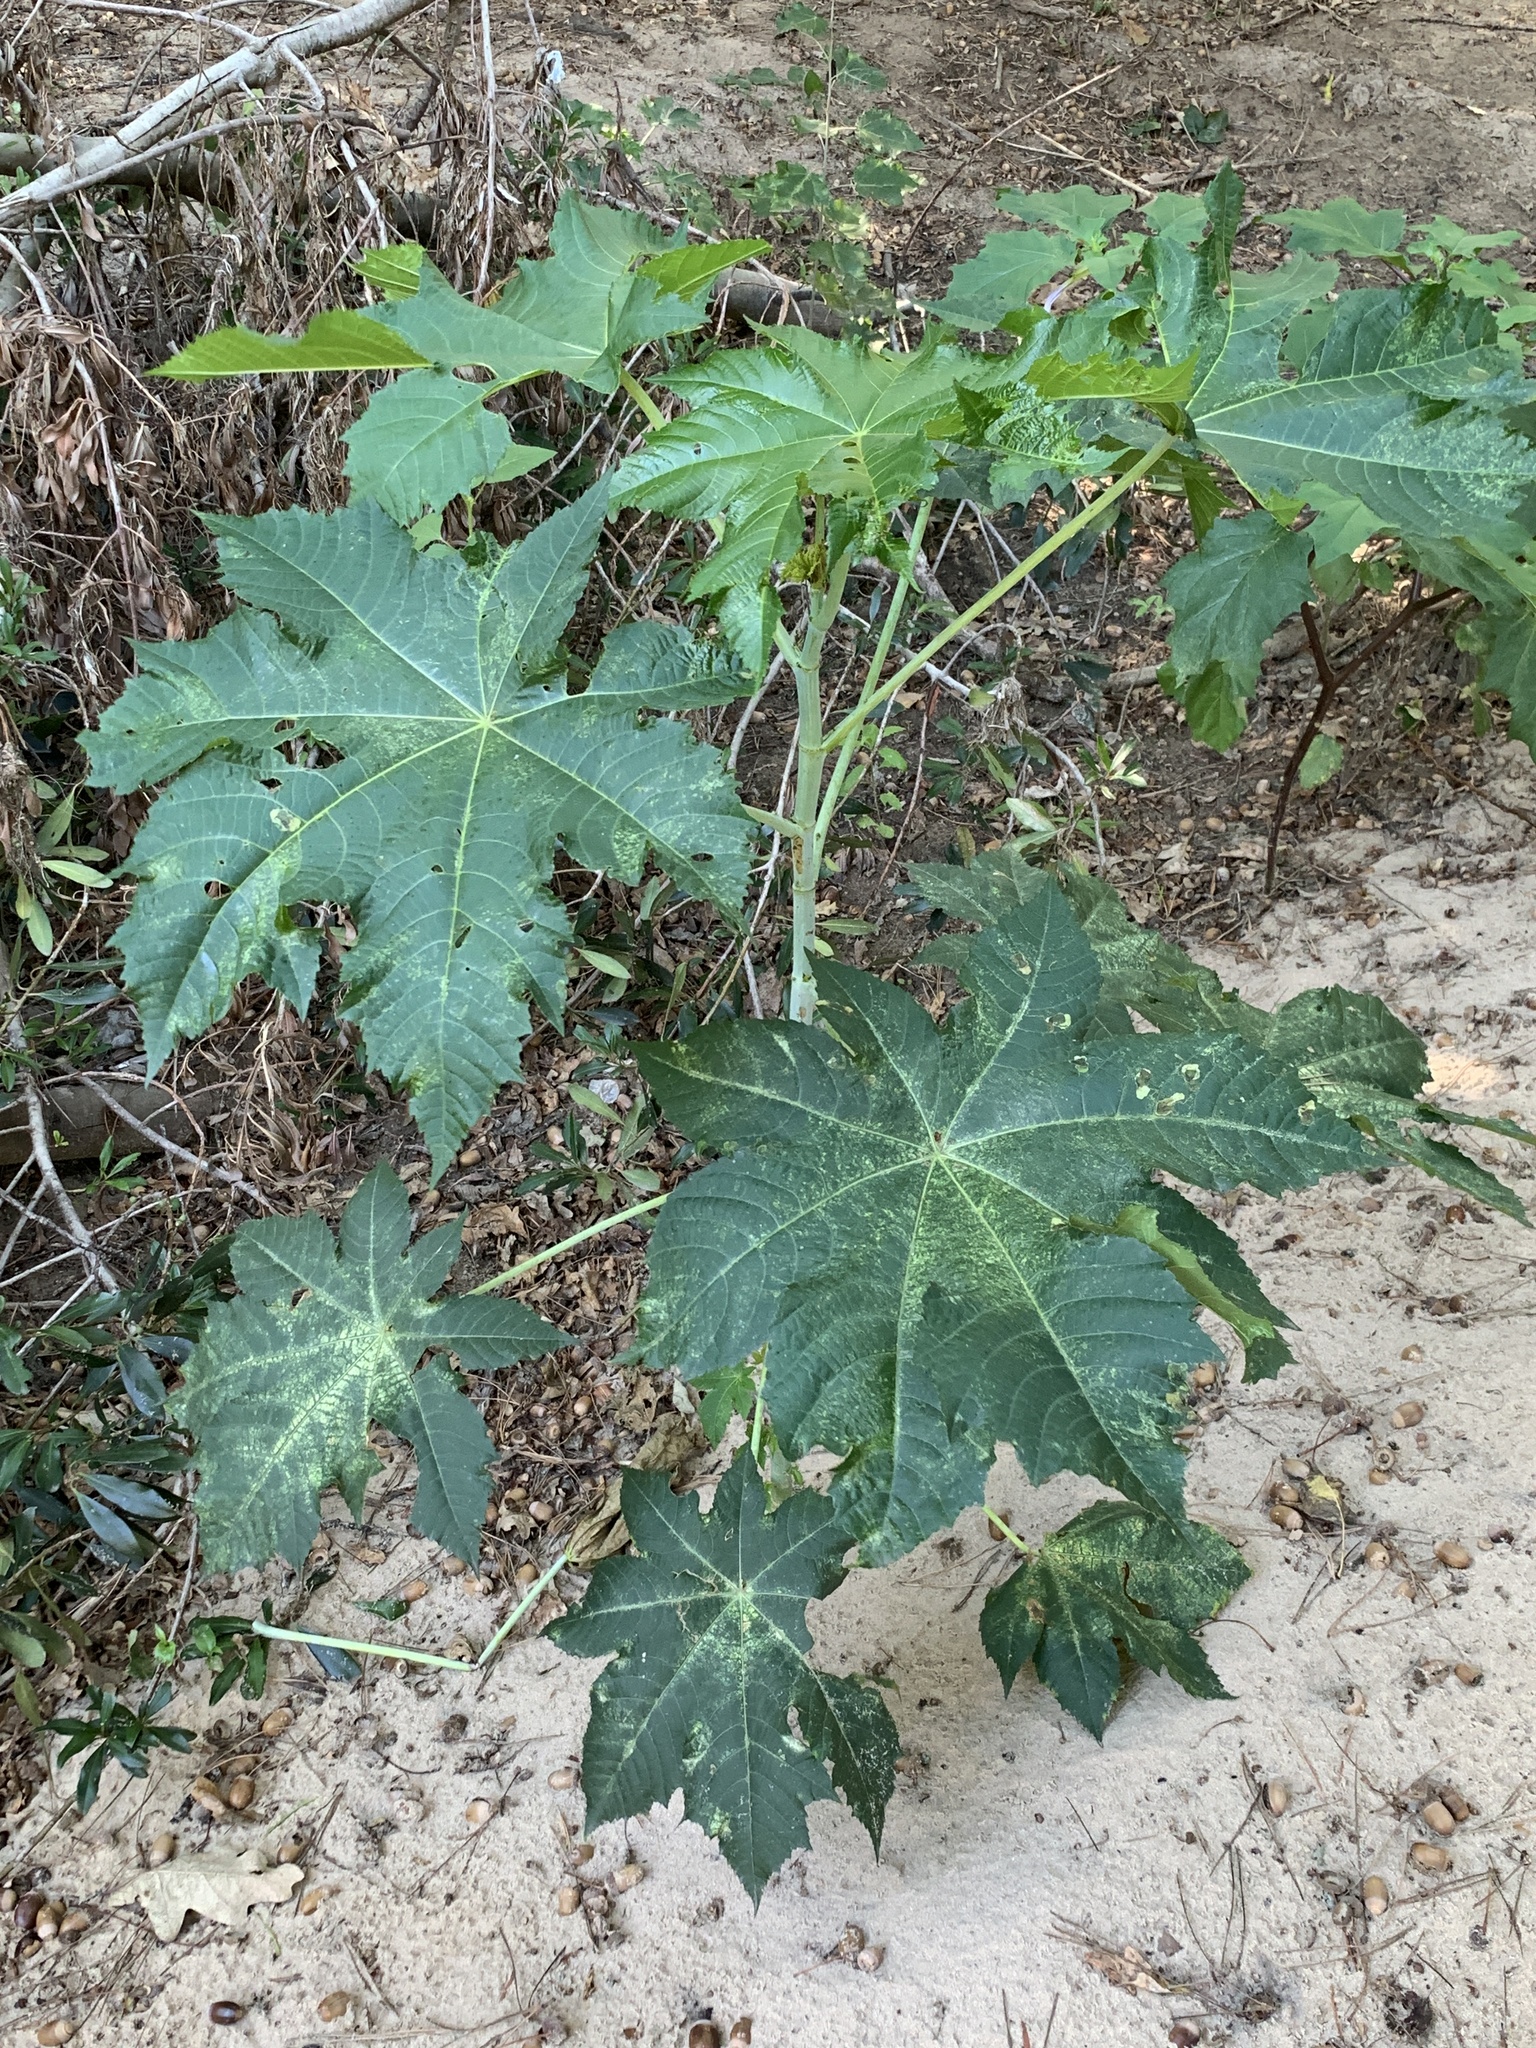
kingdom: Plantae
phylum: Tracheophyta
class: Magnoliopsida
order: Malpighiales
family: Euphorbiaceae
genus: Ricinus
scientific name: Ricinus communis
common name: Castor-oil-plant
